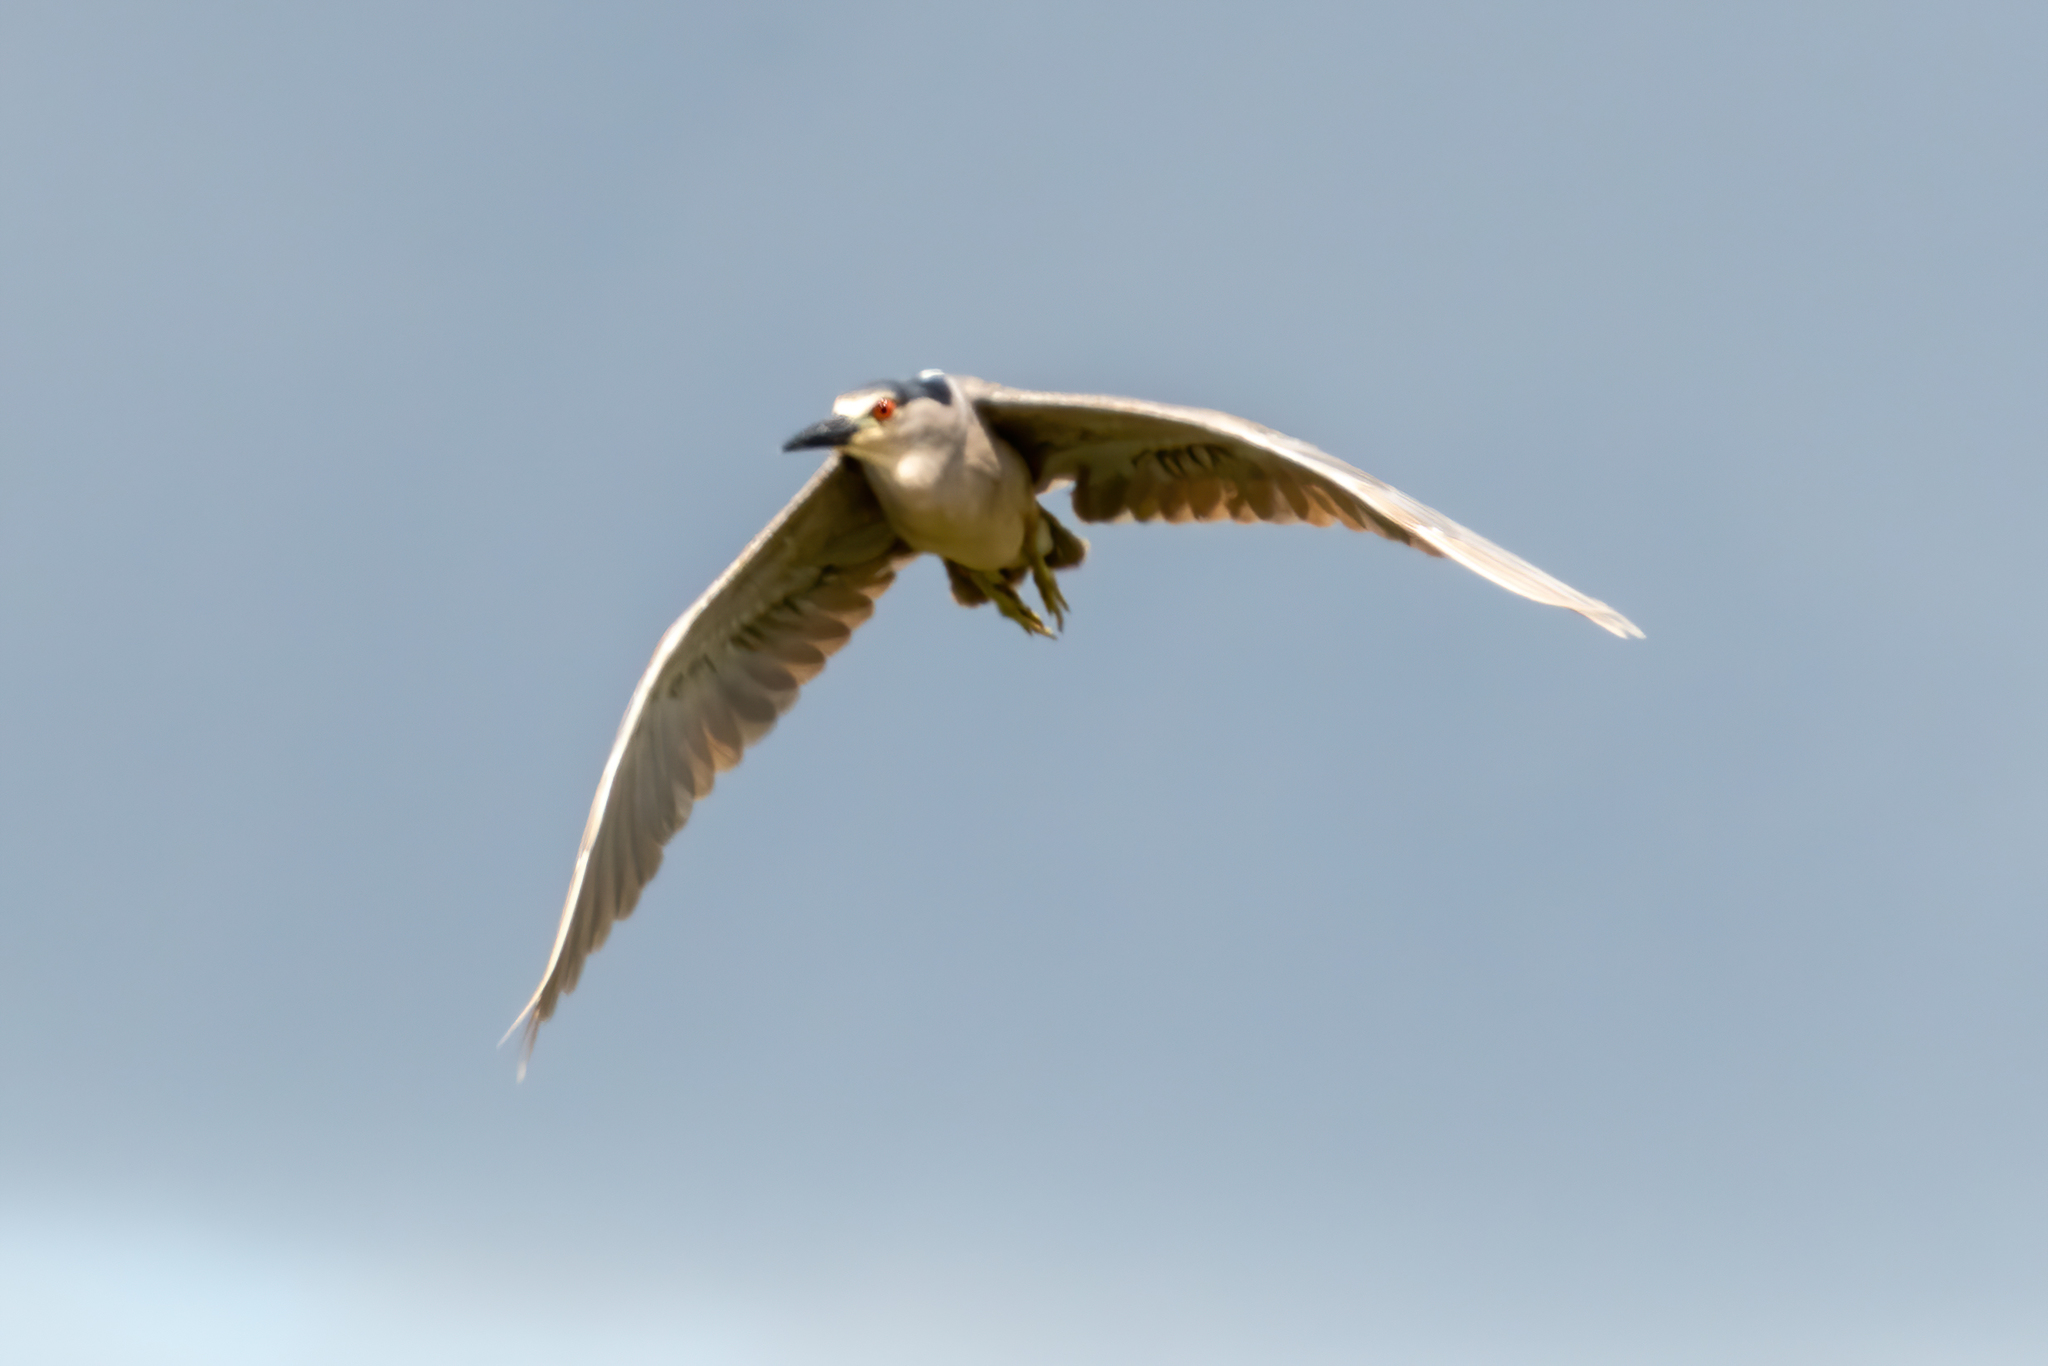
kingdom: Animalia
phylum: Chordata
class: Aves
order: Pelecaniformes
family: Ardeidae
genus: Nycticorax
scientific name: Nycticorax nycticorax
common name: Black-crowned night heron
